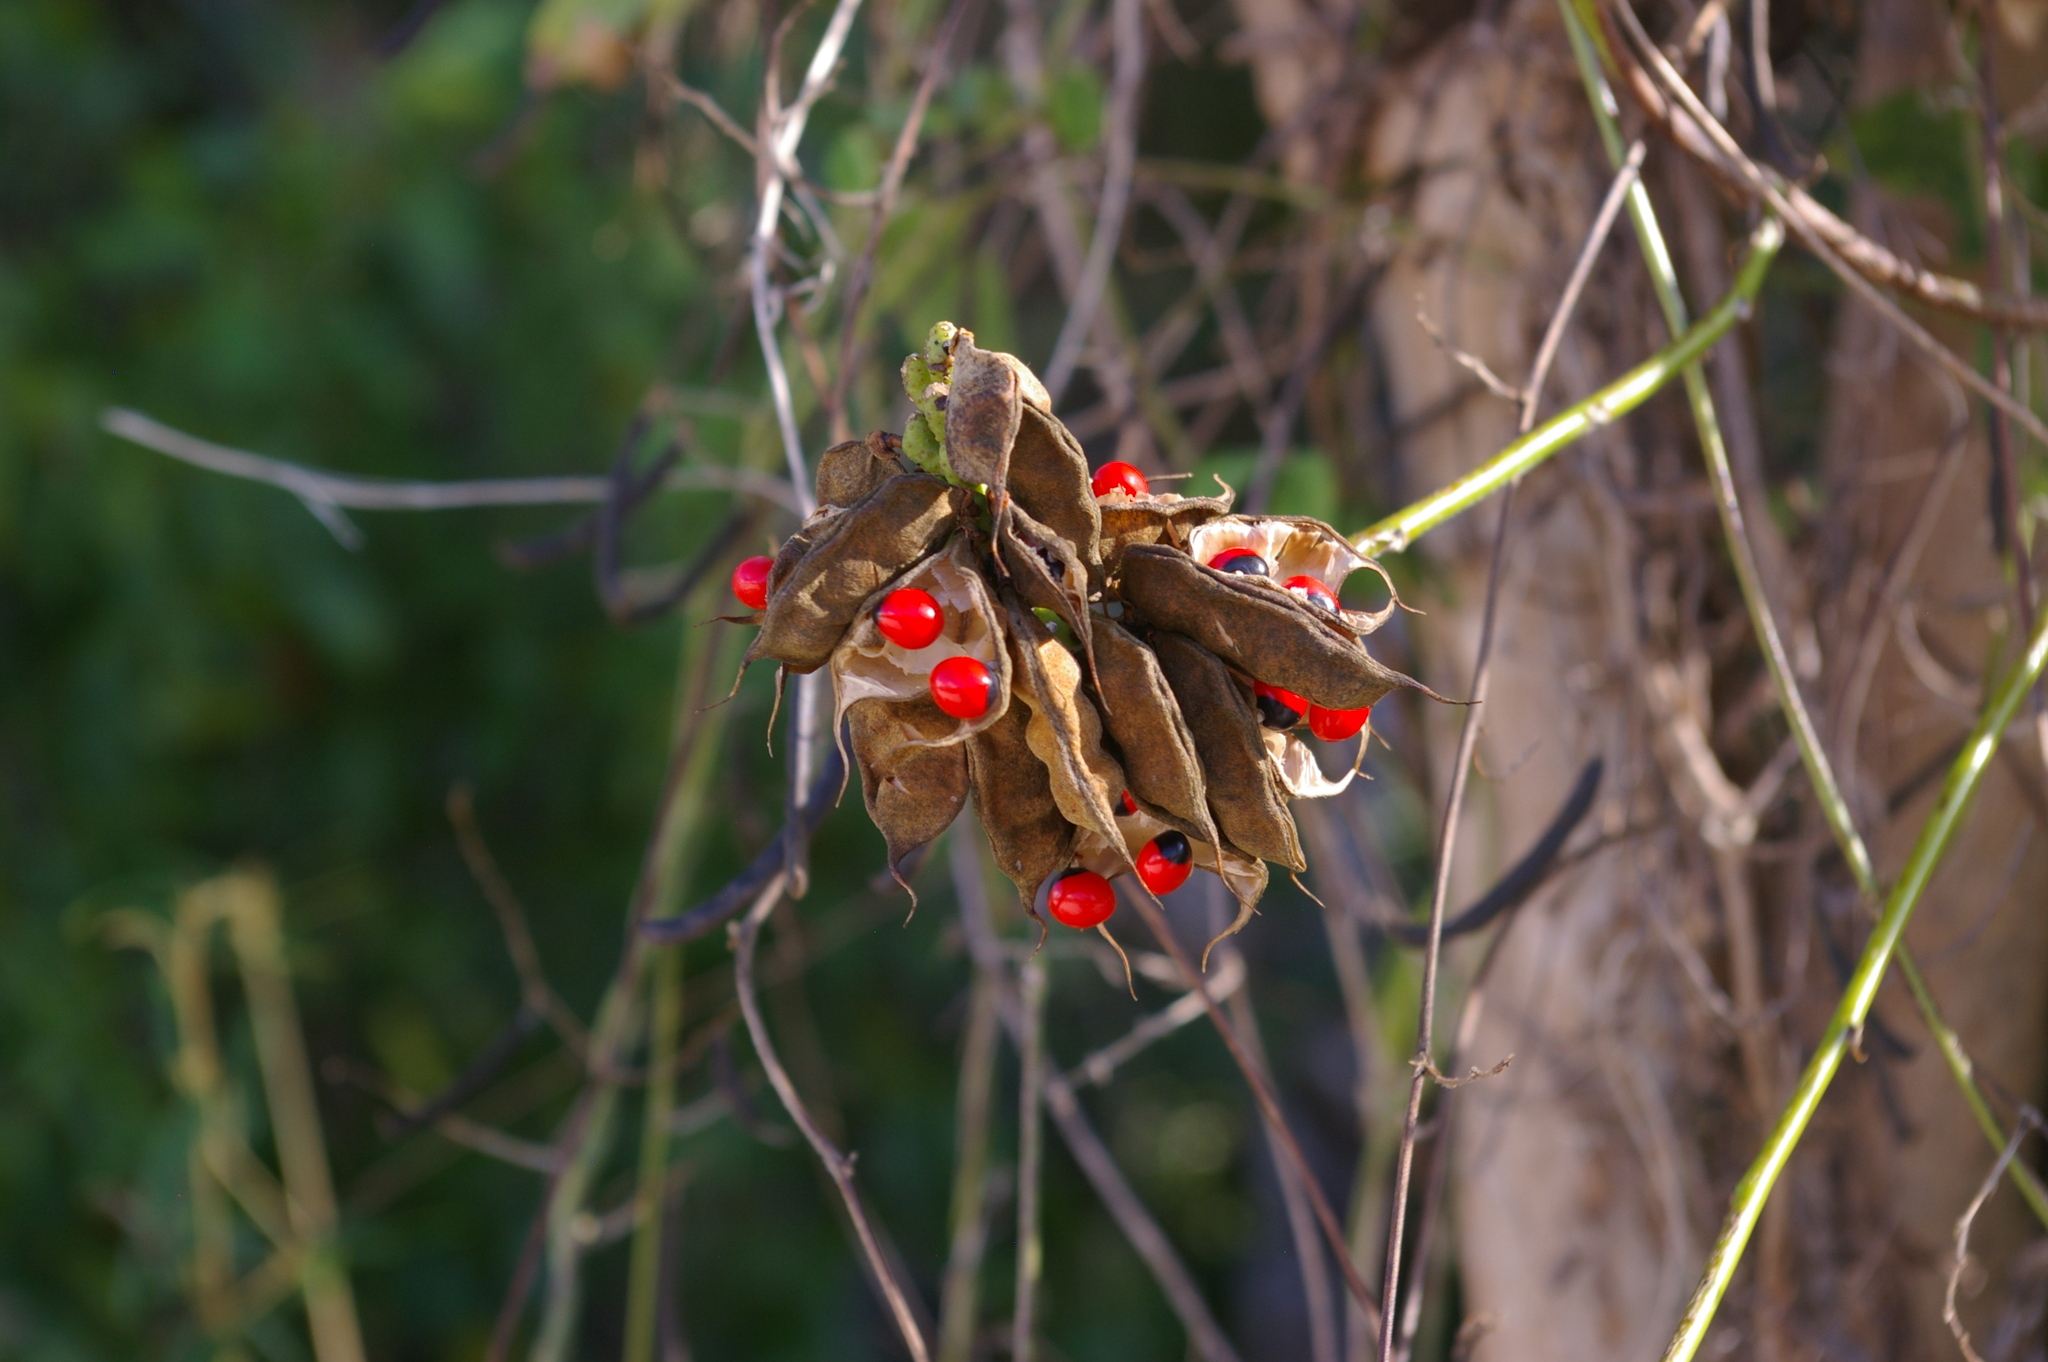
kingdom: Plantae
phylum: Tracheophyta
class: Magnoliopsida
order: Fabales
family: Fabaceae
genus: Abrus
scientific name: Abrus precatorius
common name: Rosarypea
